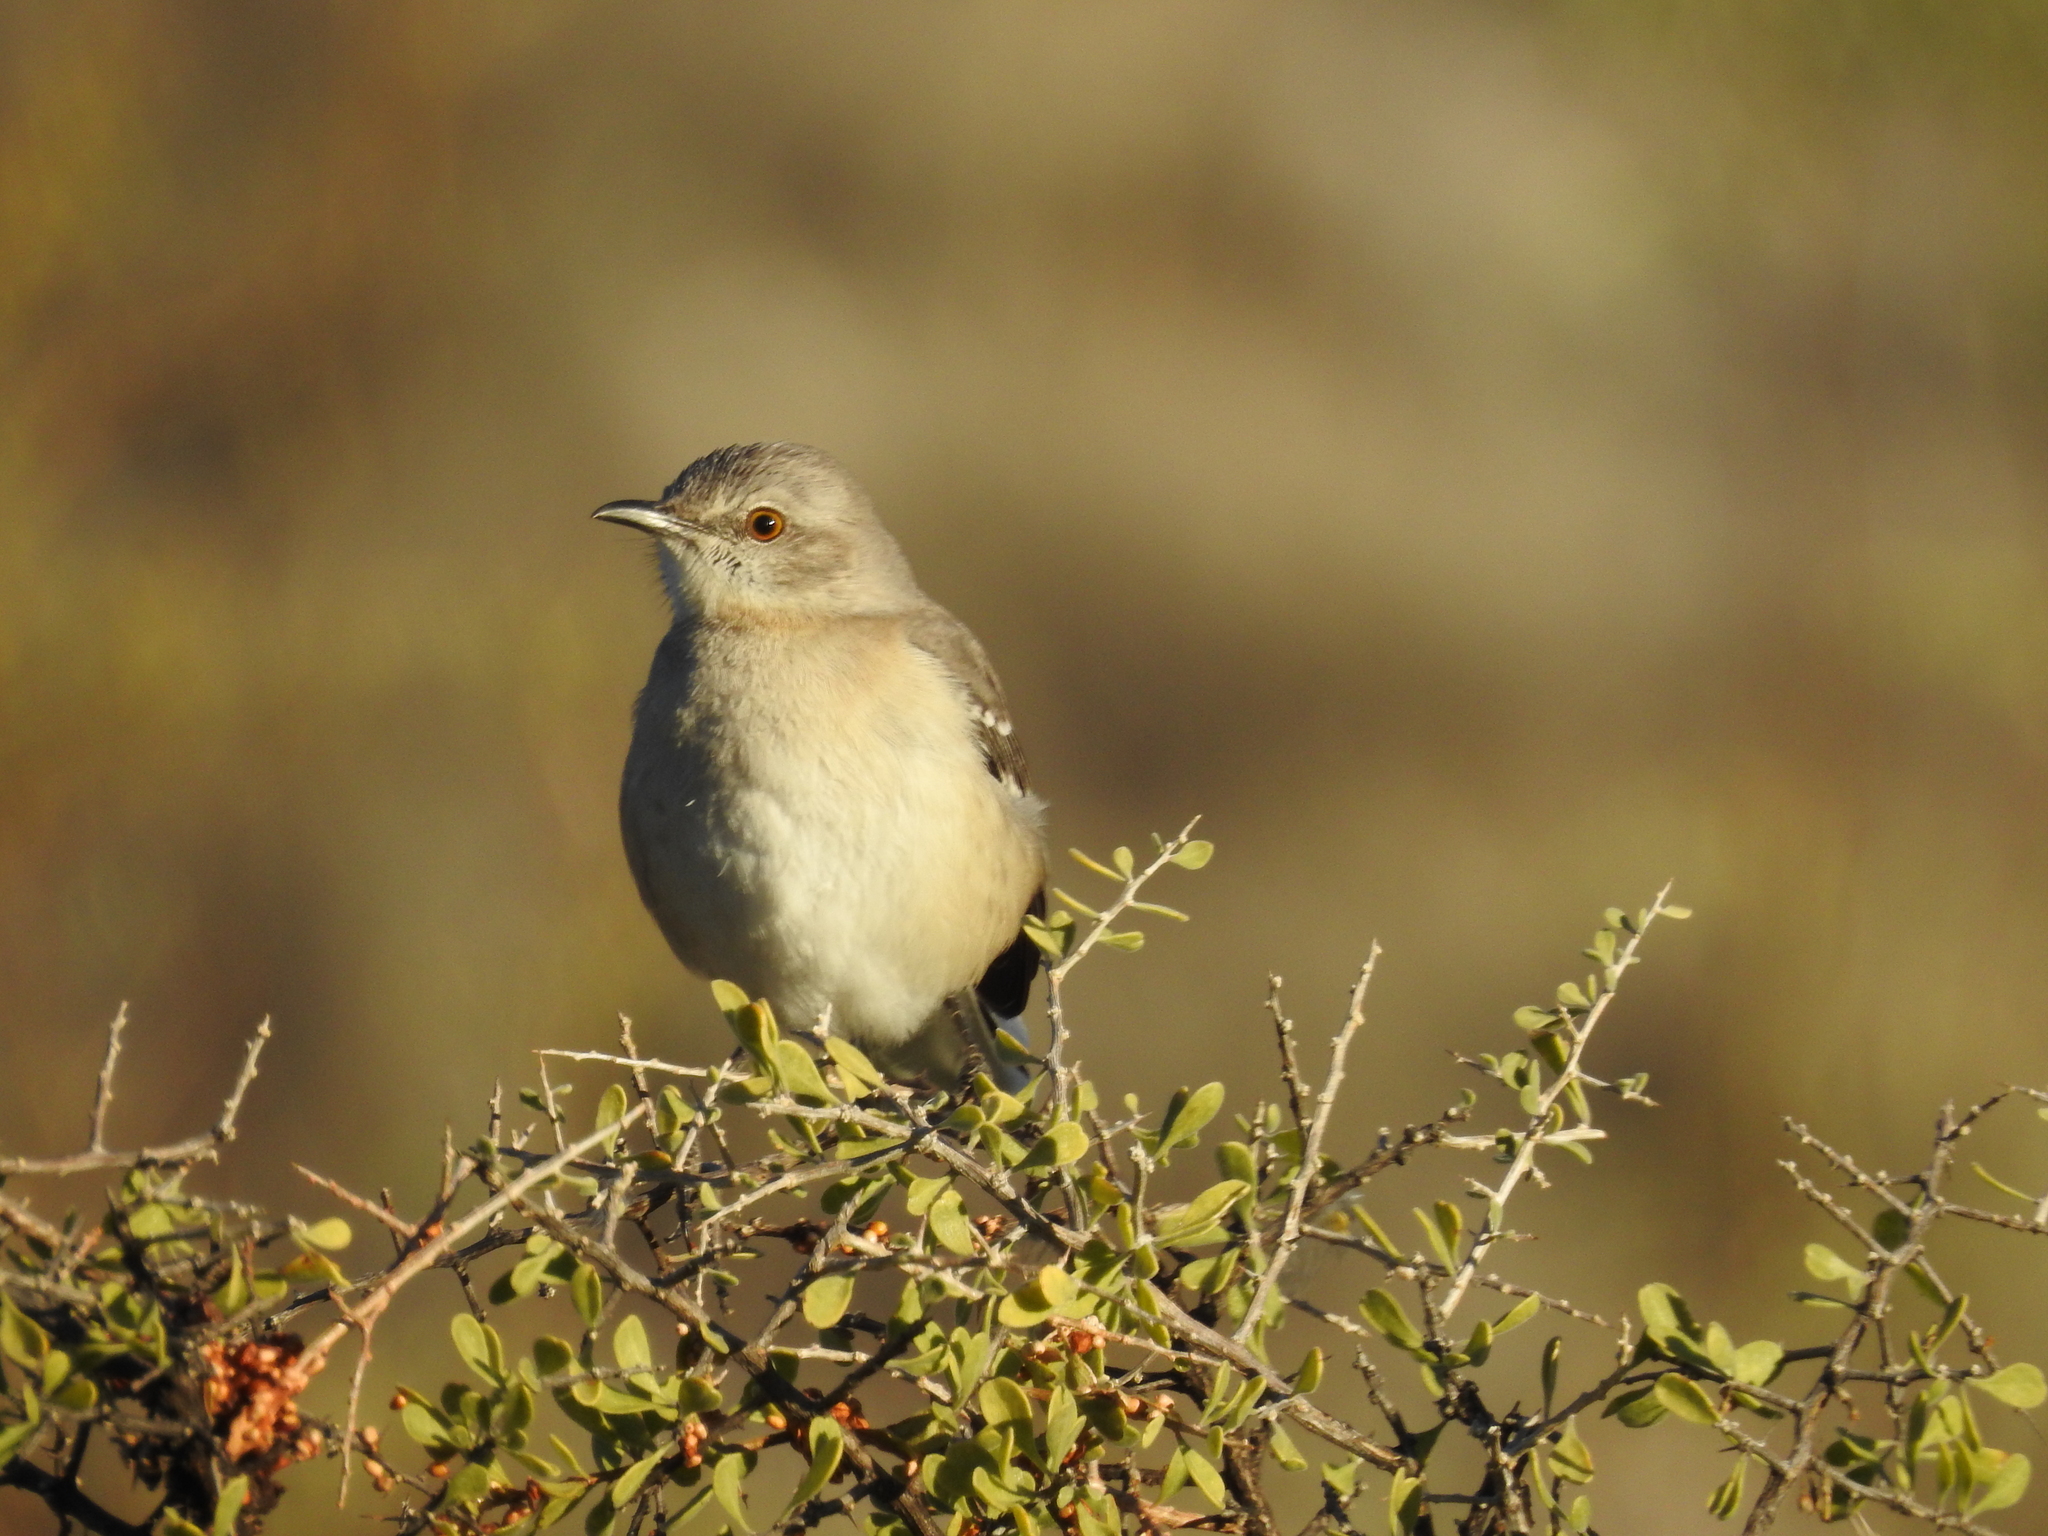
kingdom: Animalia
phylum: Chordata
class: Aves
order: Passeriformes
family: Mimidae
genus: Mimus
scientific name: Mimus polyglottos
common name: Northern mockingbird
